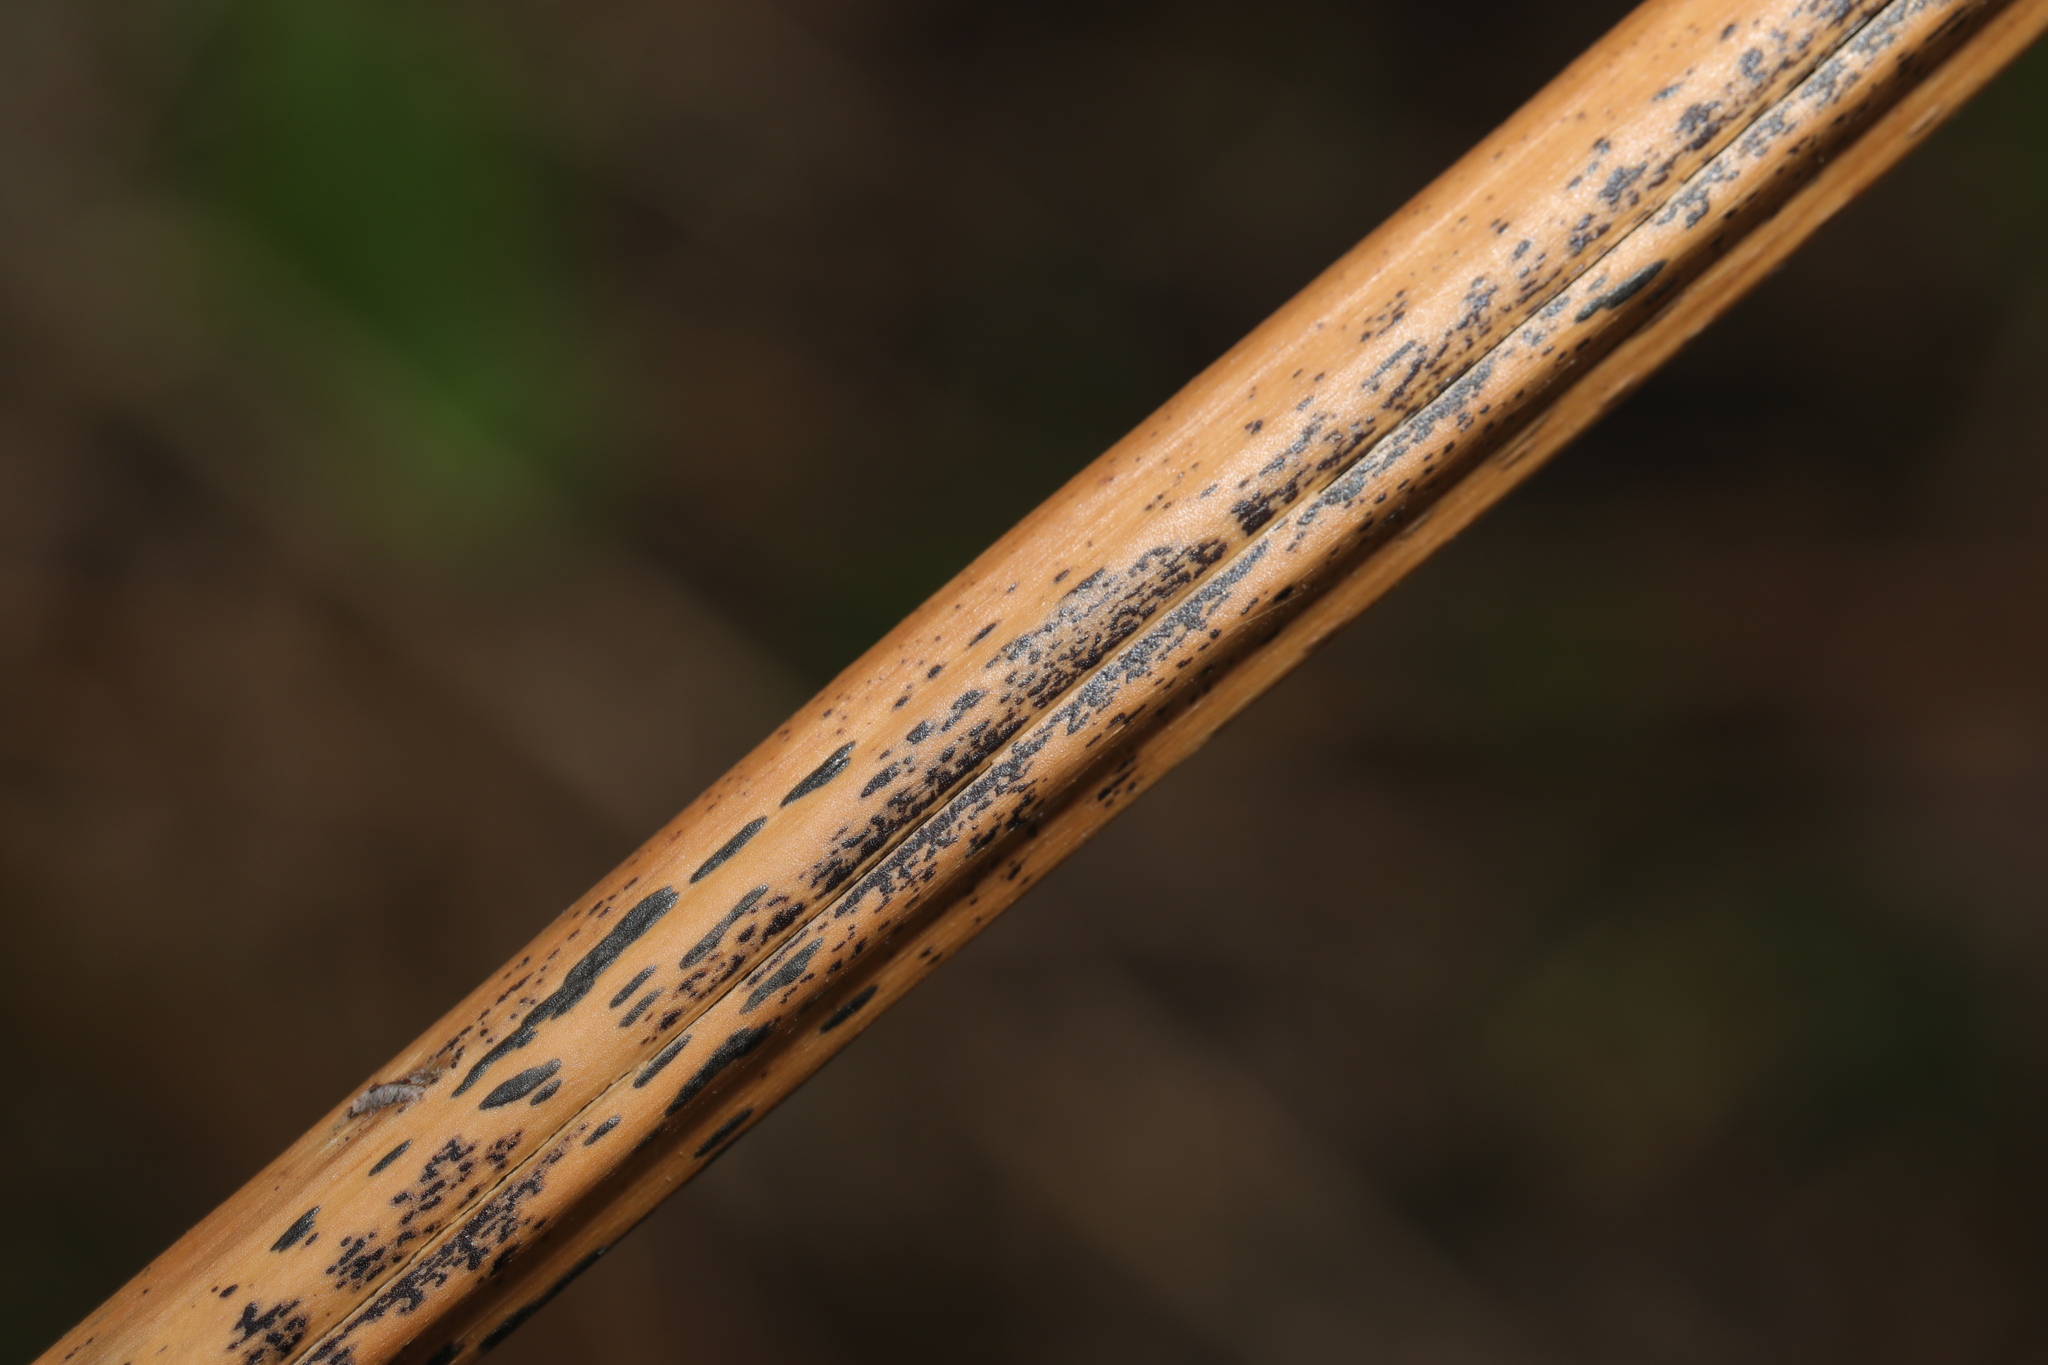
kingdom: Fungi
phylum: Ascomycota
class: Dothideomycetes
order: Pleosporales
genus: Rhopographus
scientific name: Rhopographus filicinus
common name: Bracken map
